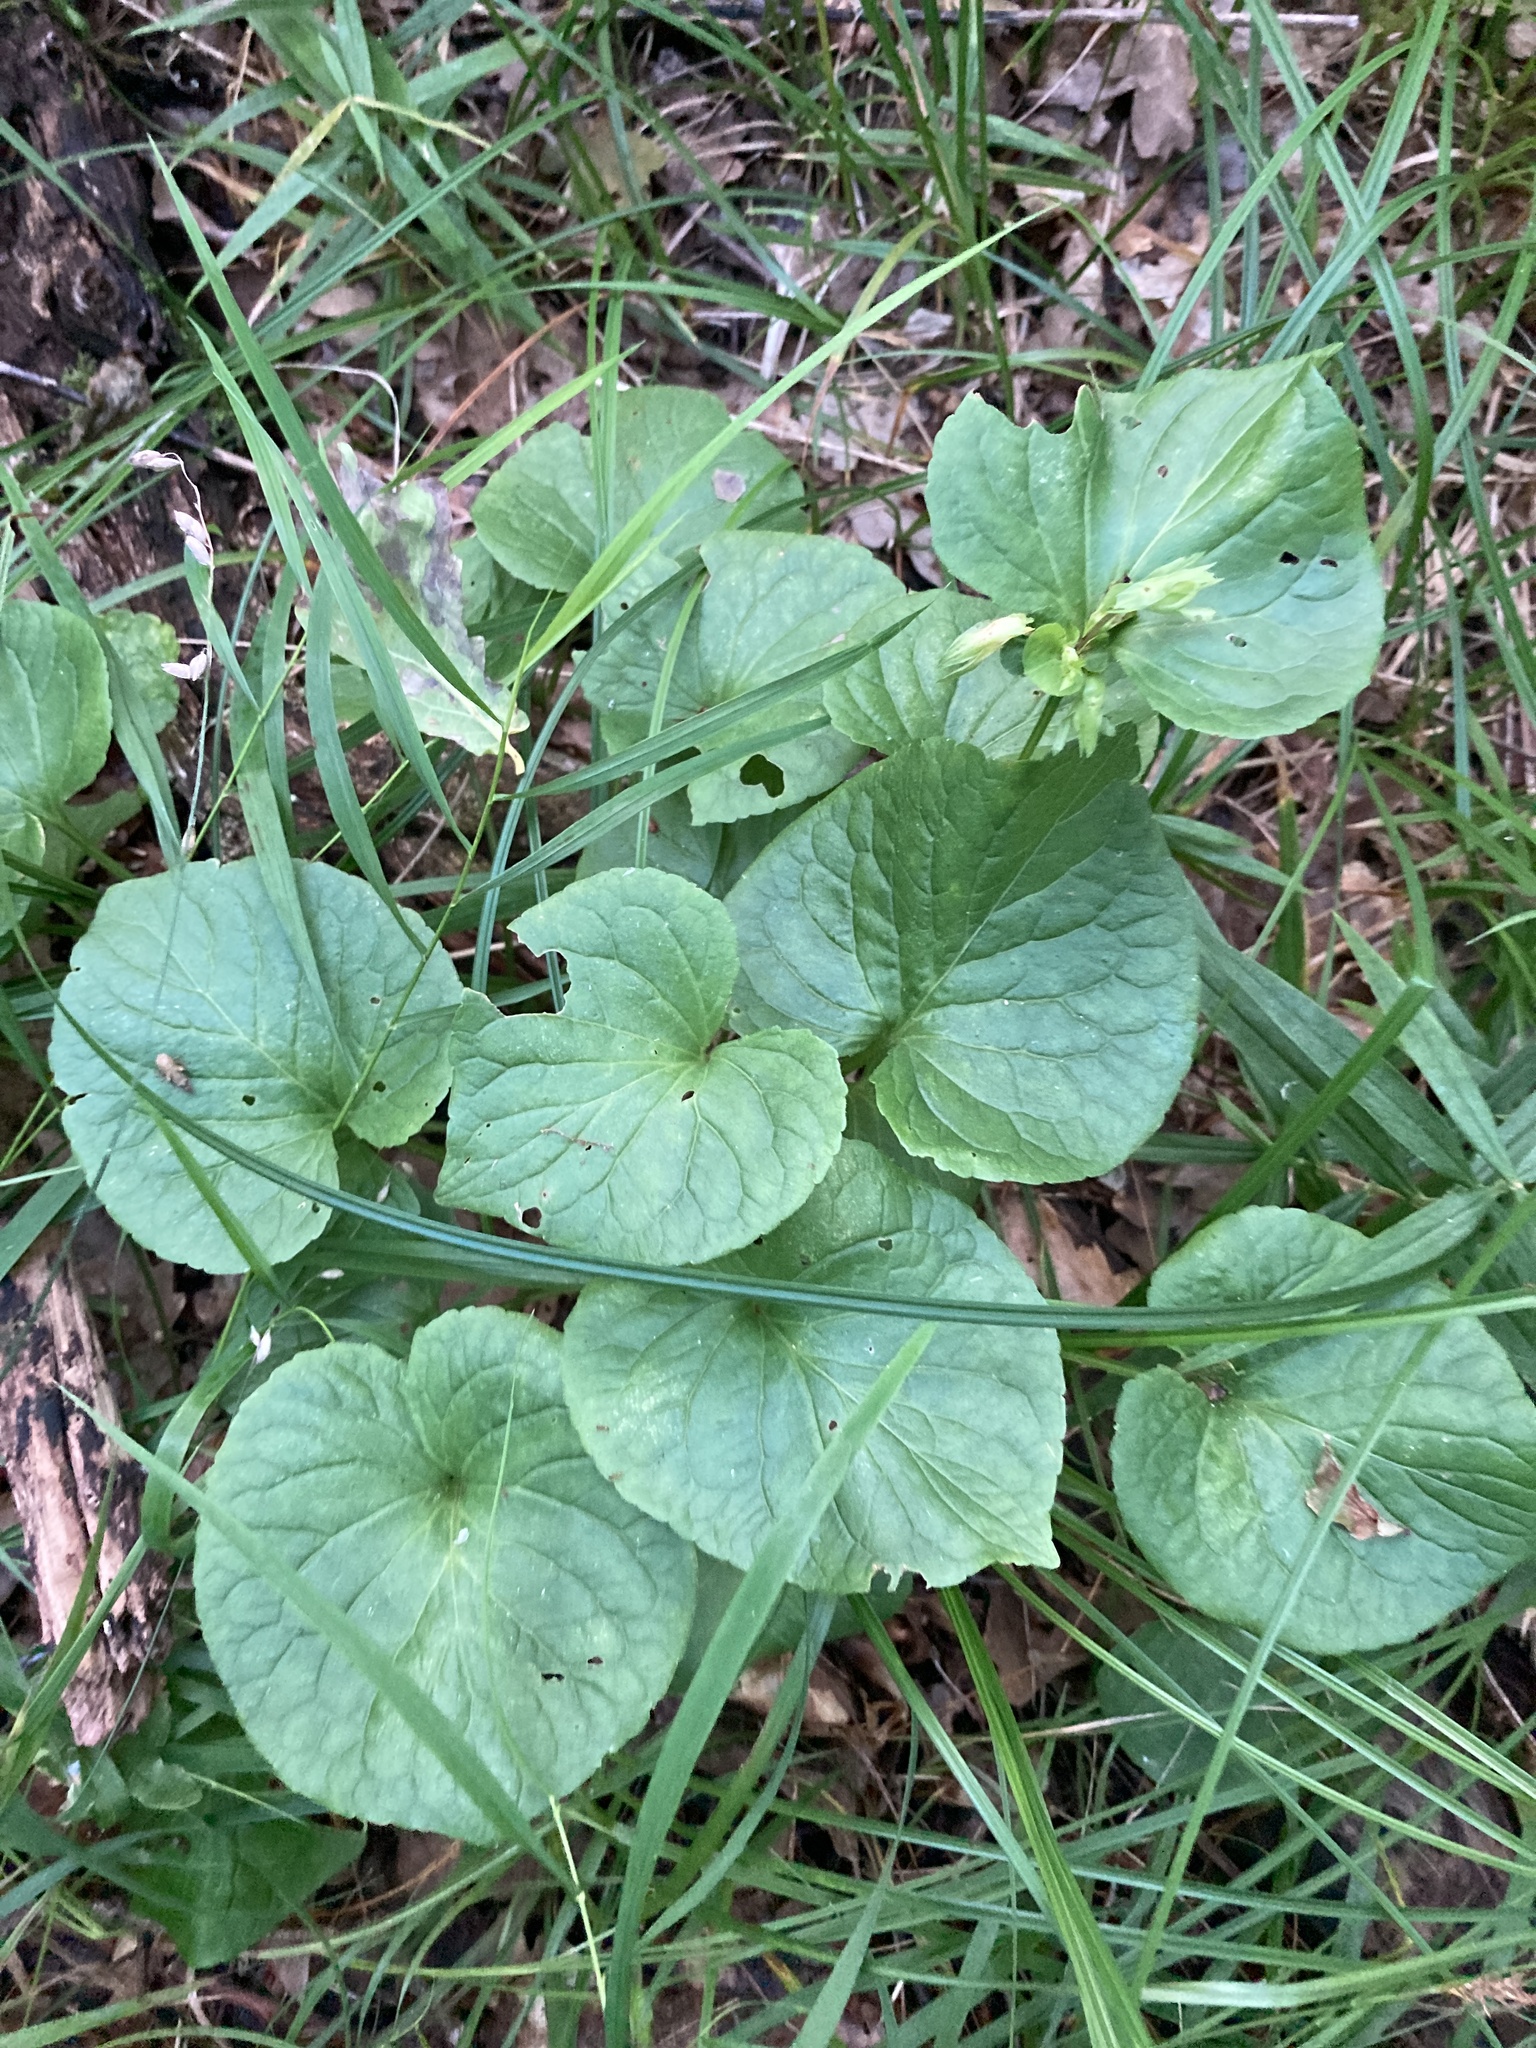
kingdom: Plantae
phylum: Tracheophyta
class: Magnoliopsida
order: Malpighiales
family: Violaceae
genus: Viola
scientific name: Viola mirabilis
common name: Wonder violet
